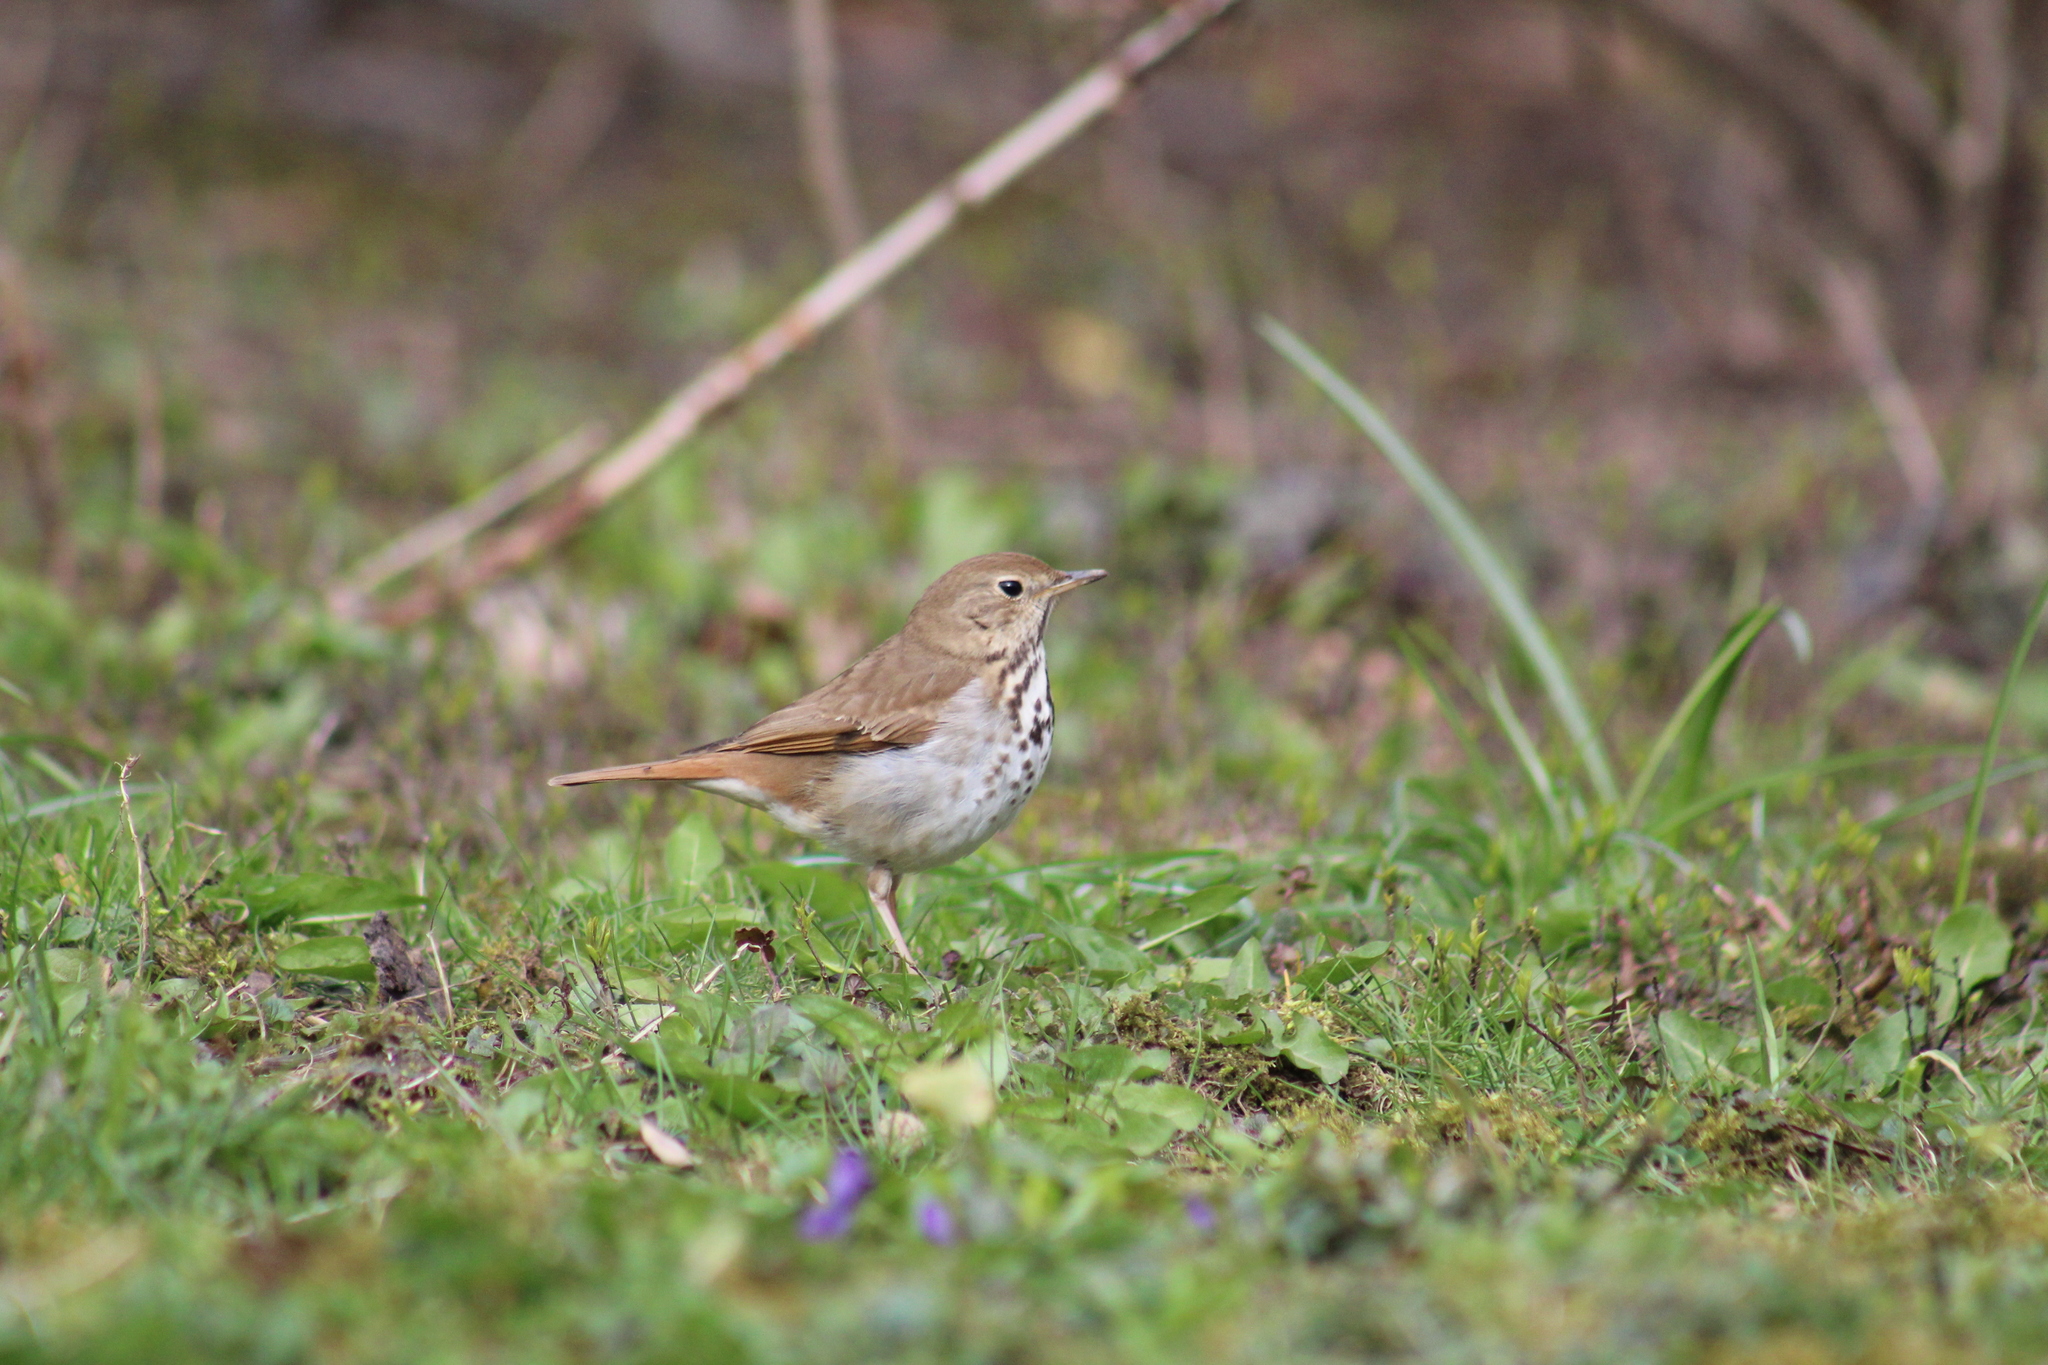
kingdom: Animalia
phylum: Chordata
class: Aves
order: Passeriformes
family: Turdidae
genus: Catharus
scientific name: Catharus guttatus
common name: Hermit thrush
